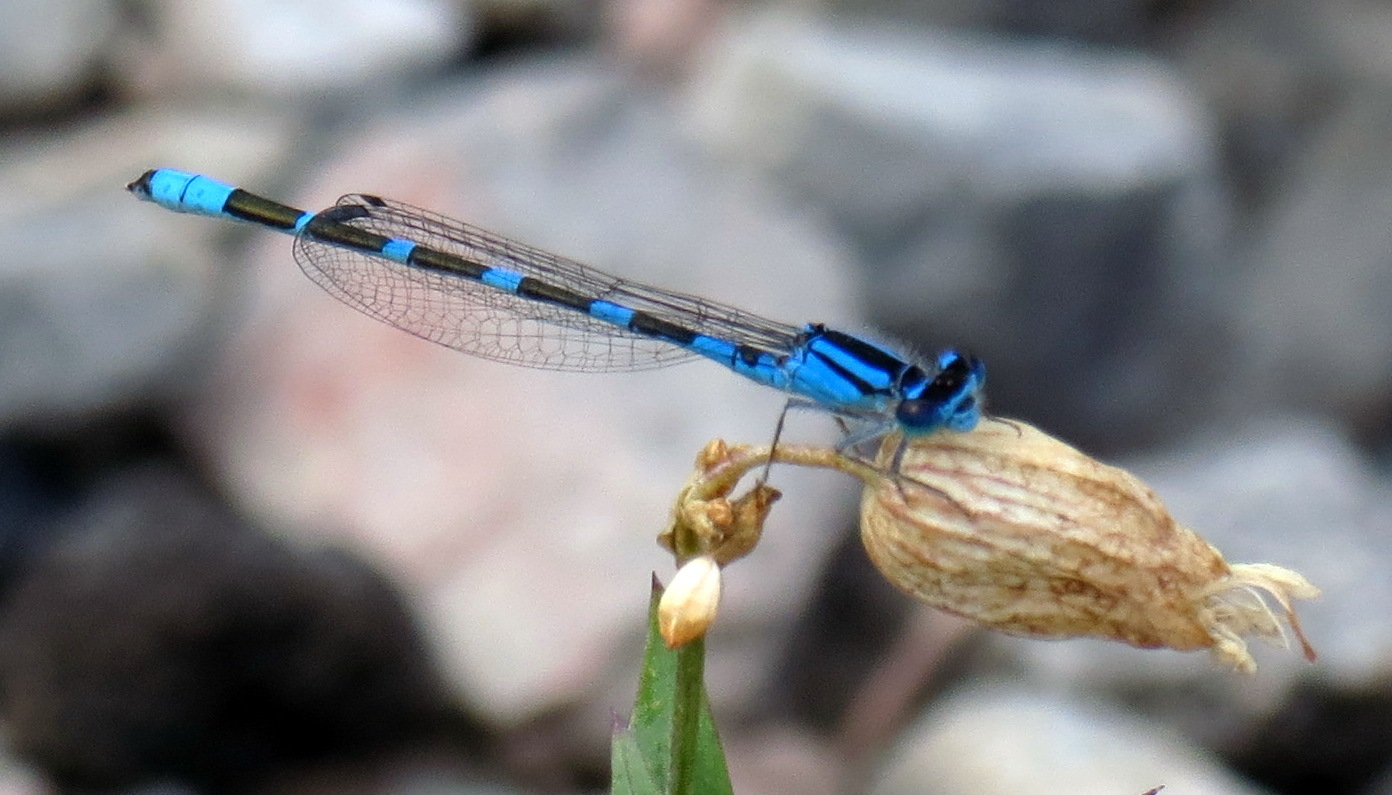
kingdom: Animalia
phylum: Arthropoda
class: Insecta
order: Odonata
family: Coenagrionidae
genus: Enallagma
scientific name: Enallagma carunculatum
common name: Tule bluet
